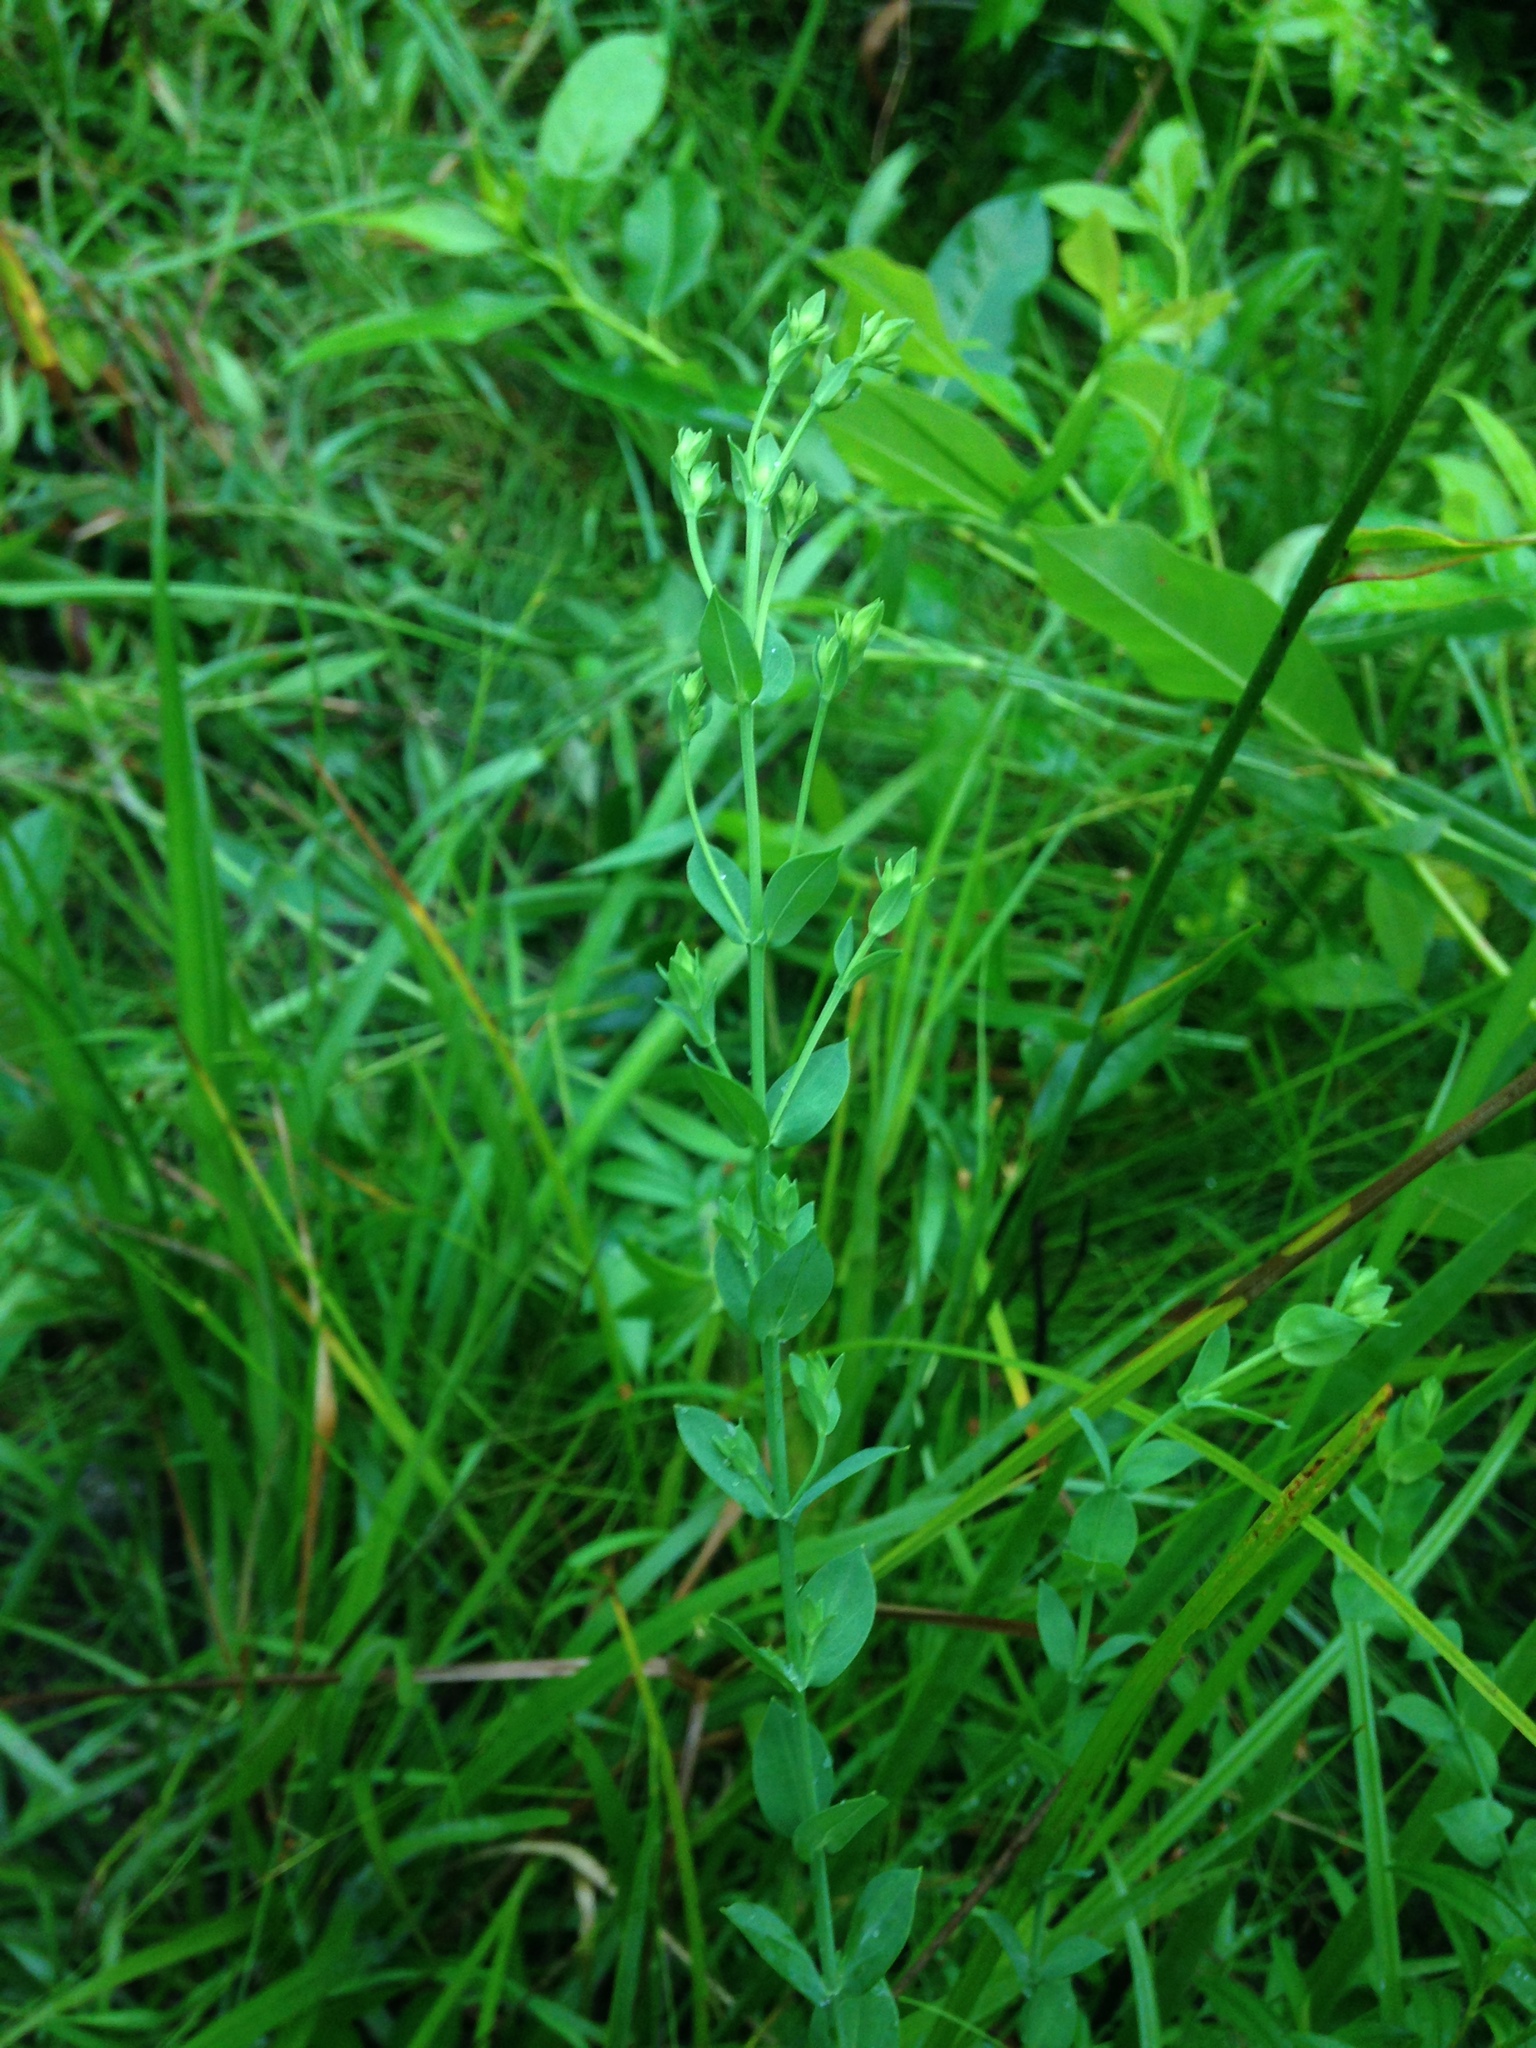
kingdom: Plantae
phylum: Tracheophyta
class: Magnoliopsida
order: Malpighiales
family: Hypericaceae
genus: Hypericum
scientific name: Hypericum denticulatum
